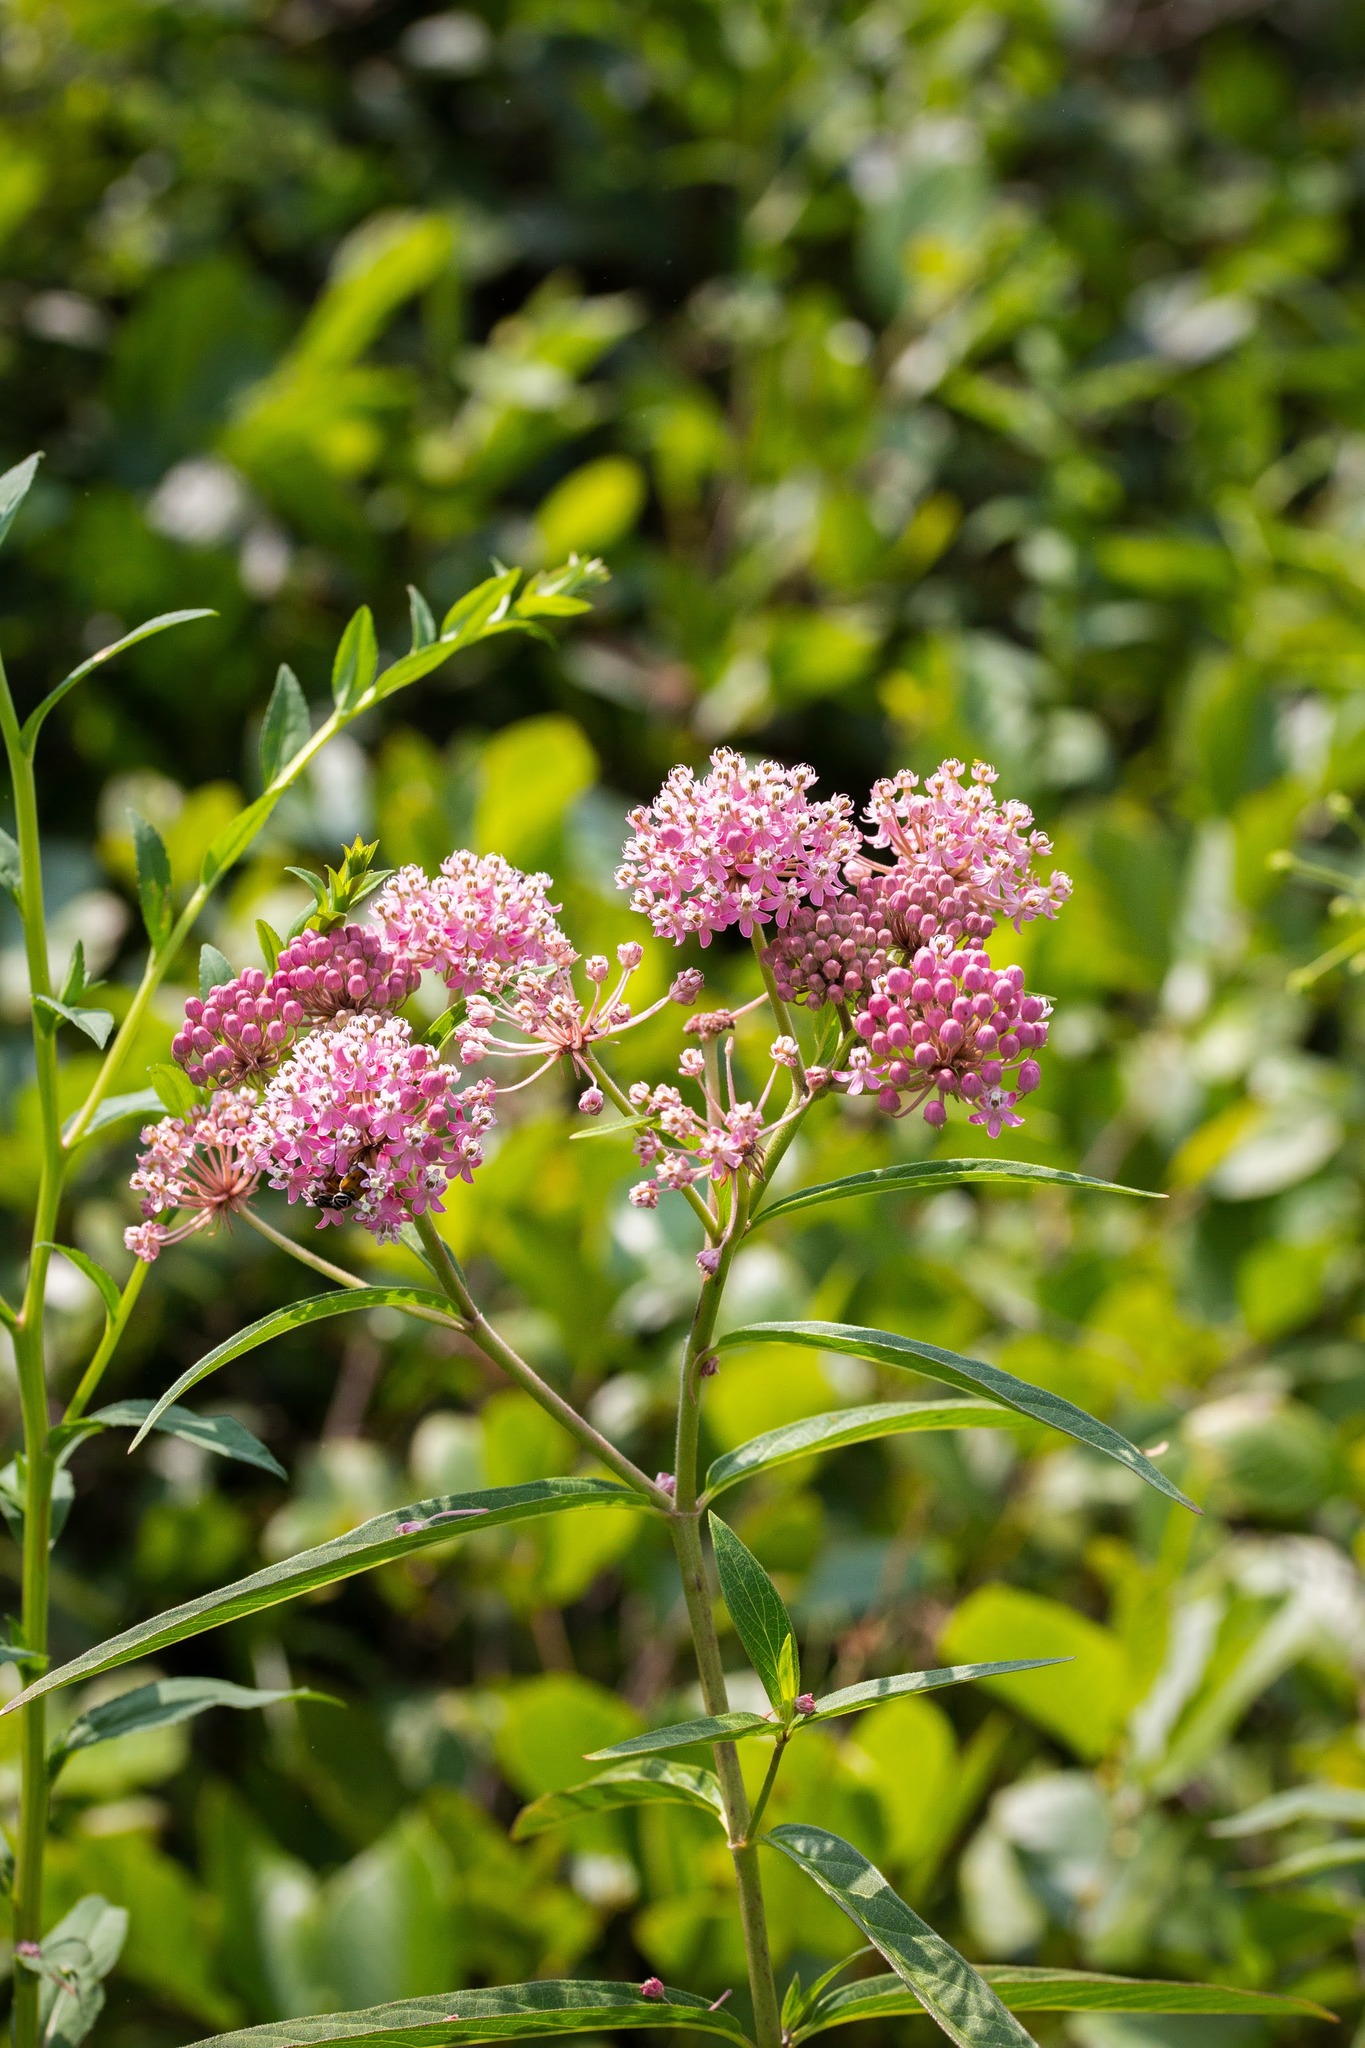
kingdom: Plantae
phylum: Tracheophyta
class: Magnoliopsida
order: Gentianales
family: Apocynaceae
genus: Asclepias
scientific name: Asclepias incarnata
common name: Swamp milkweed
